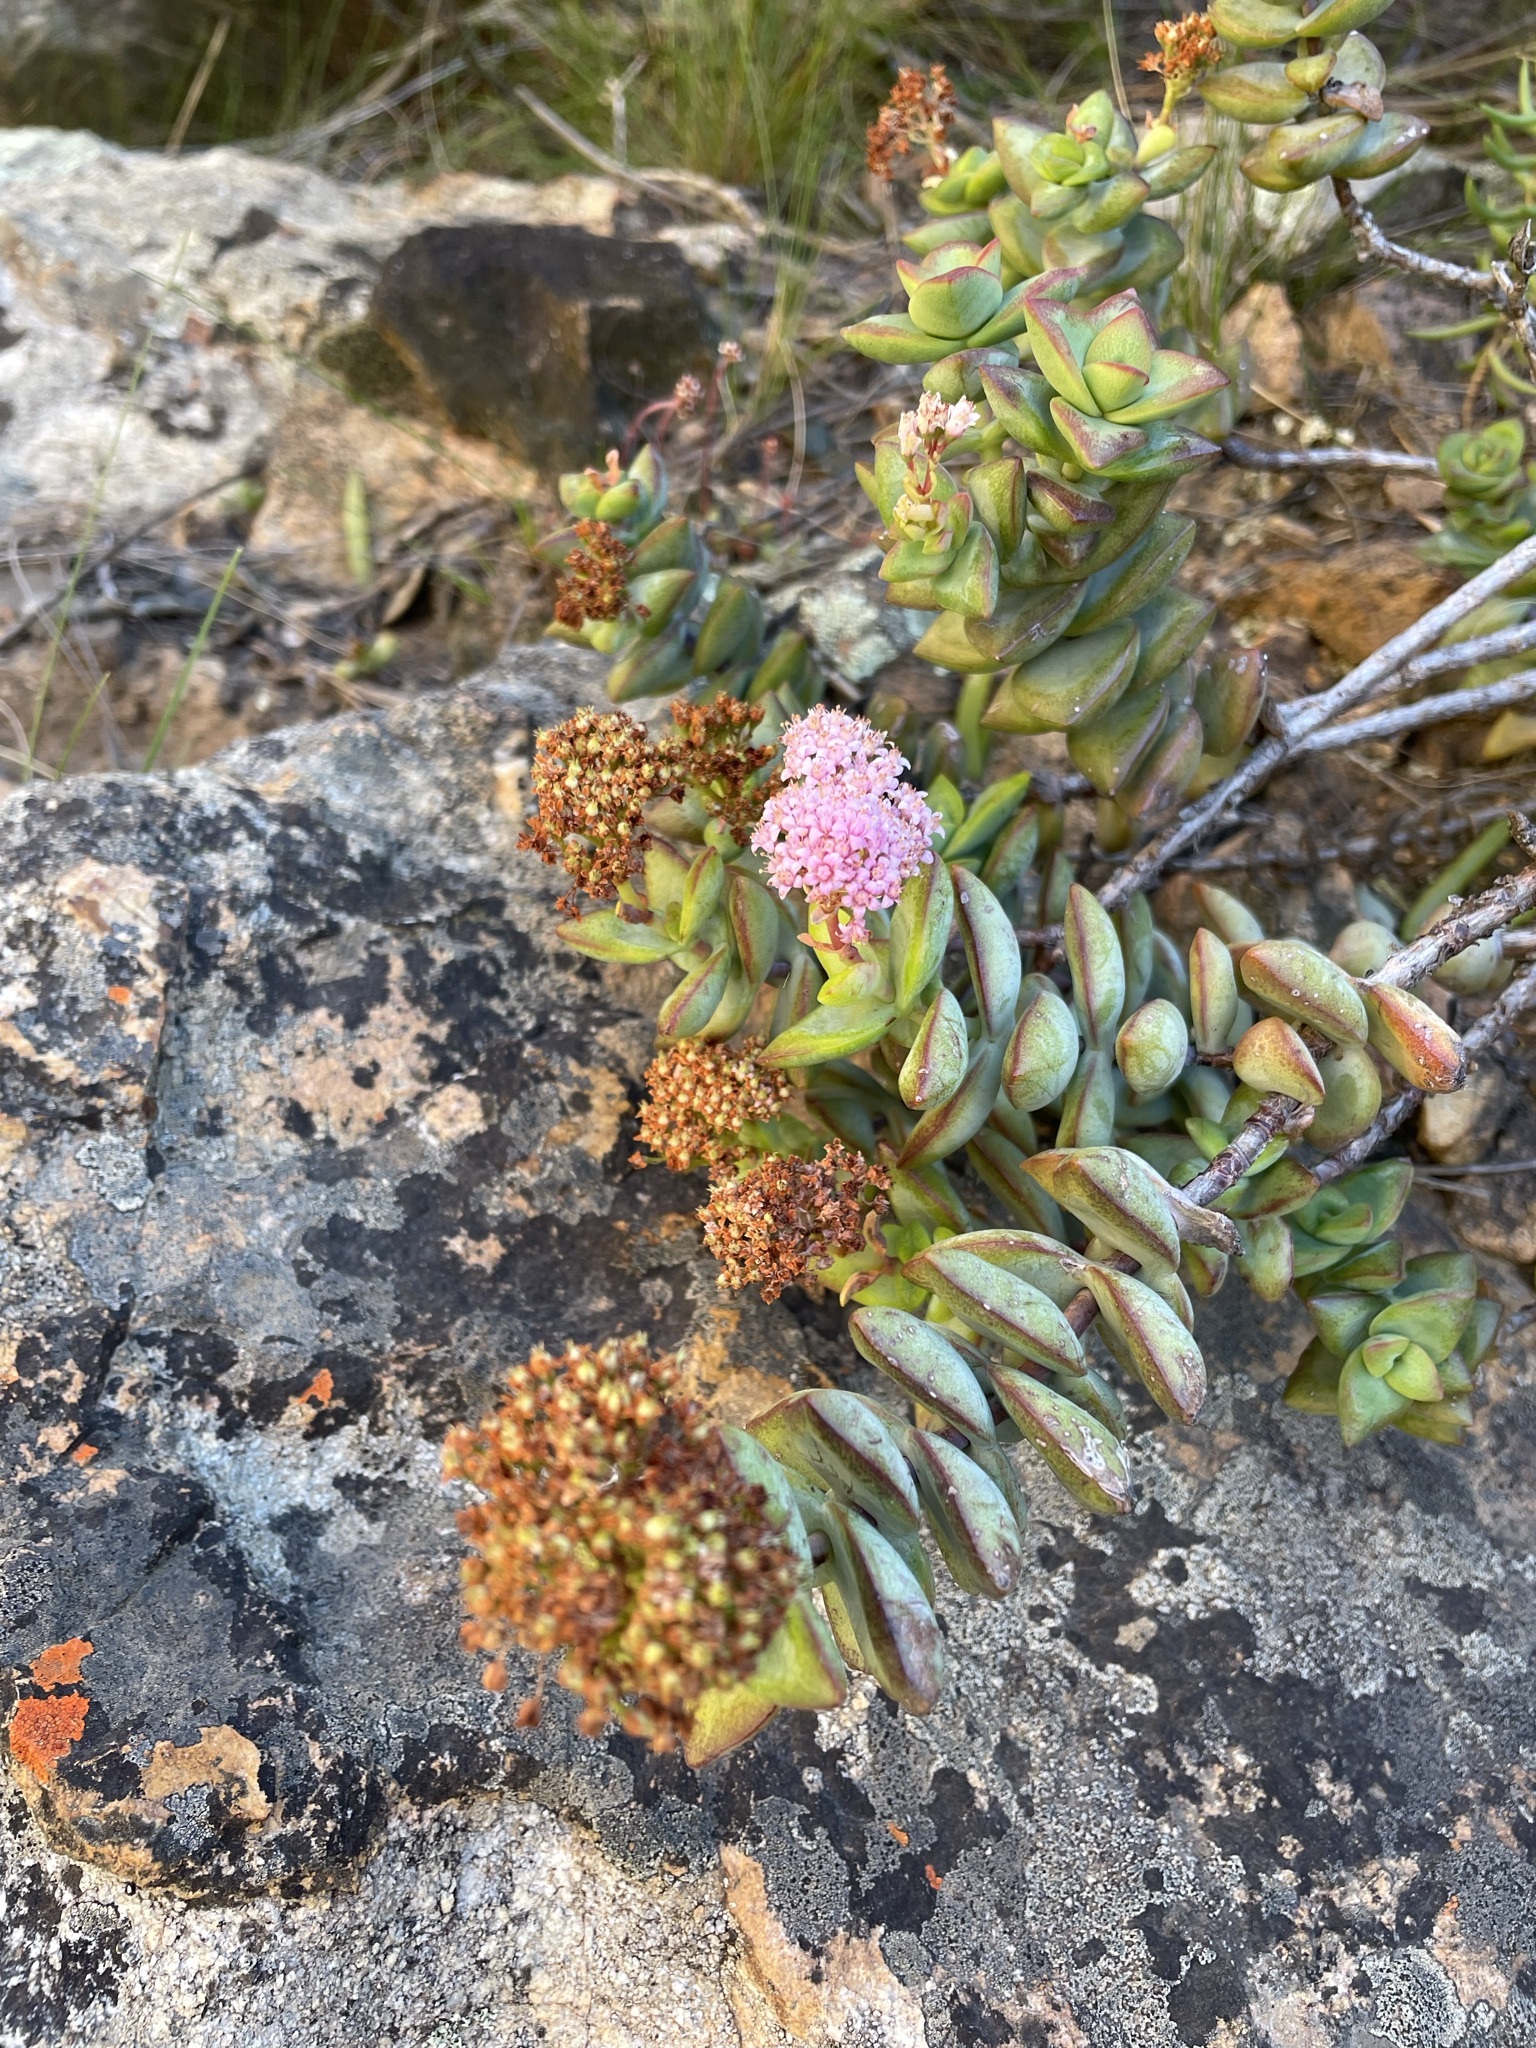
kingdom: Plantae
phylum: Tracheophyta
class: Magnoliopsida
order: Saxifragales
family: Crassulaceae
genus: Crassula
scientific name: Crassula rupestris
